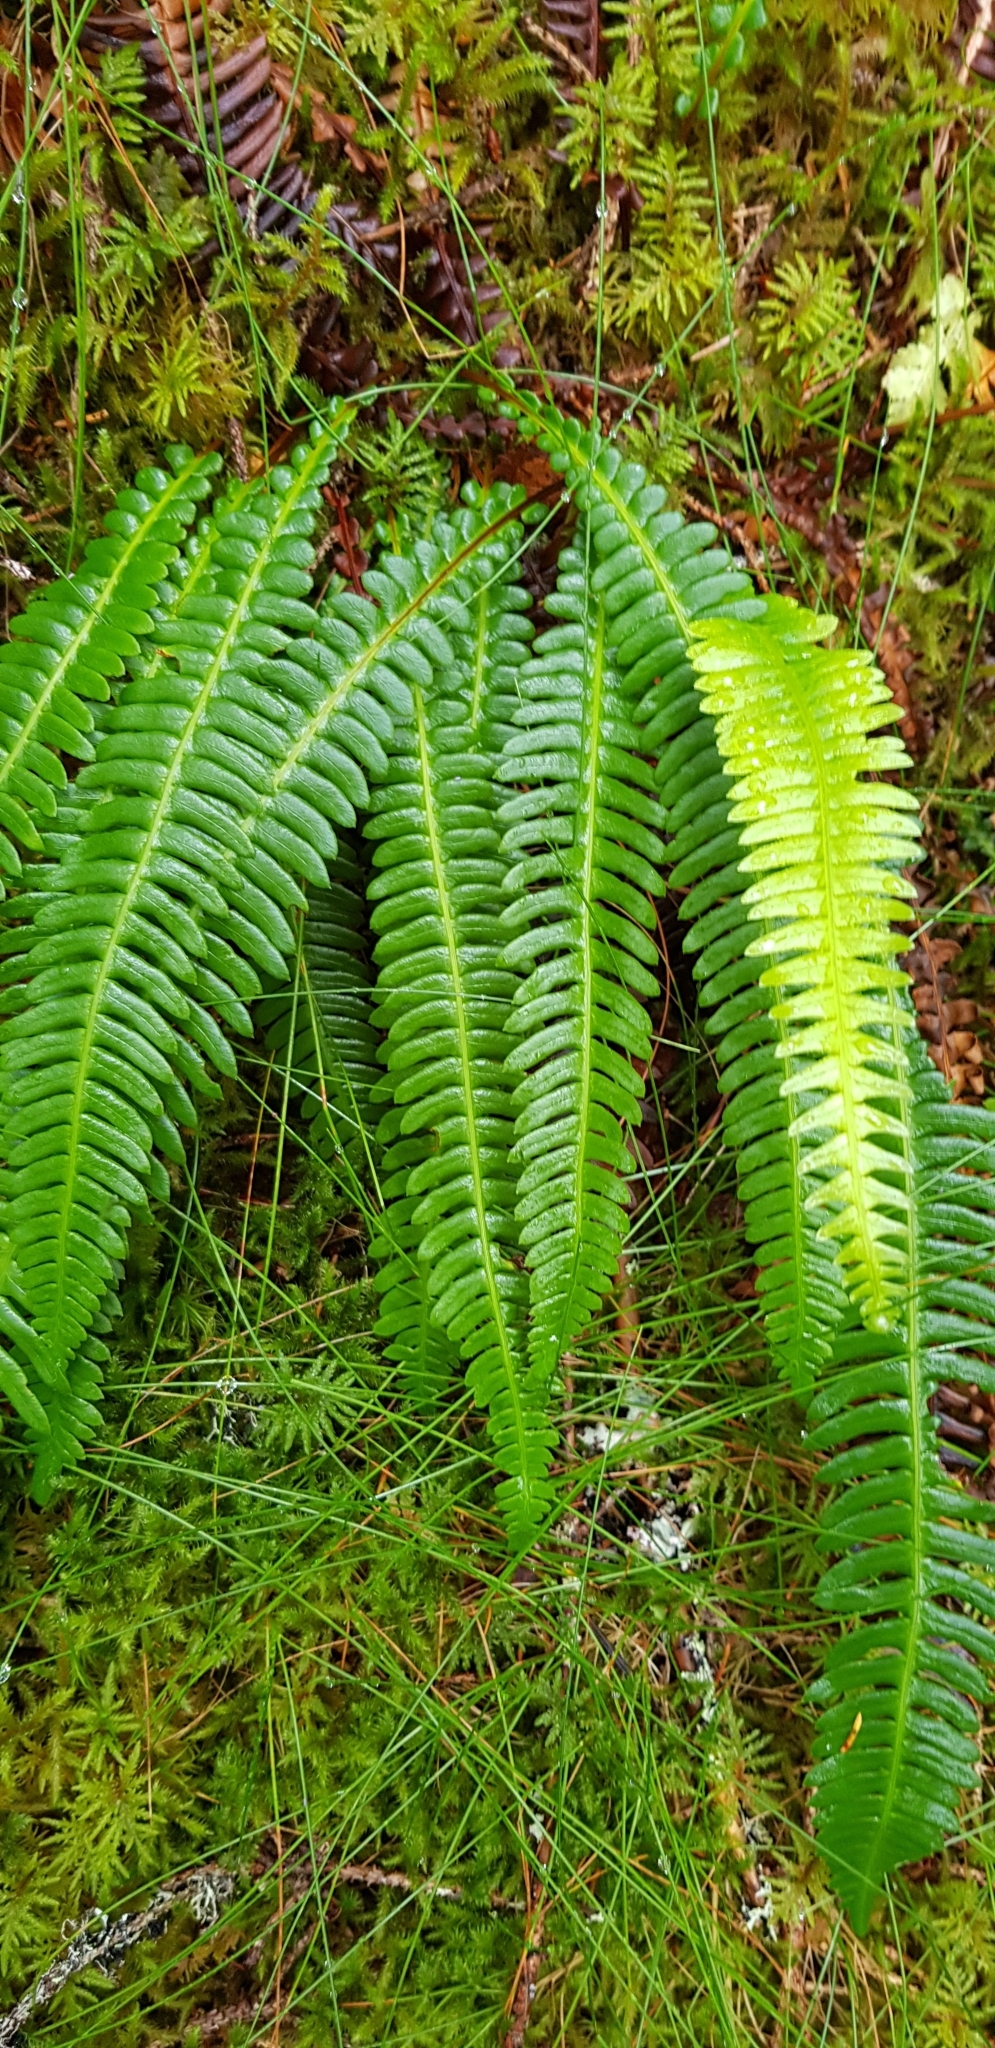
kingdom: Plantae
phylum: Tracheophyta
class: Polypodiopsida
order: Polypodiales
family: Blechnaceae
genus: Struthiopteris
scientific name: Struthiopteris spicant
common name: Deer fern
